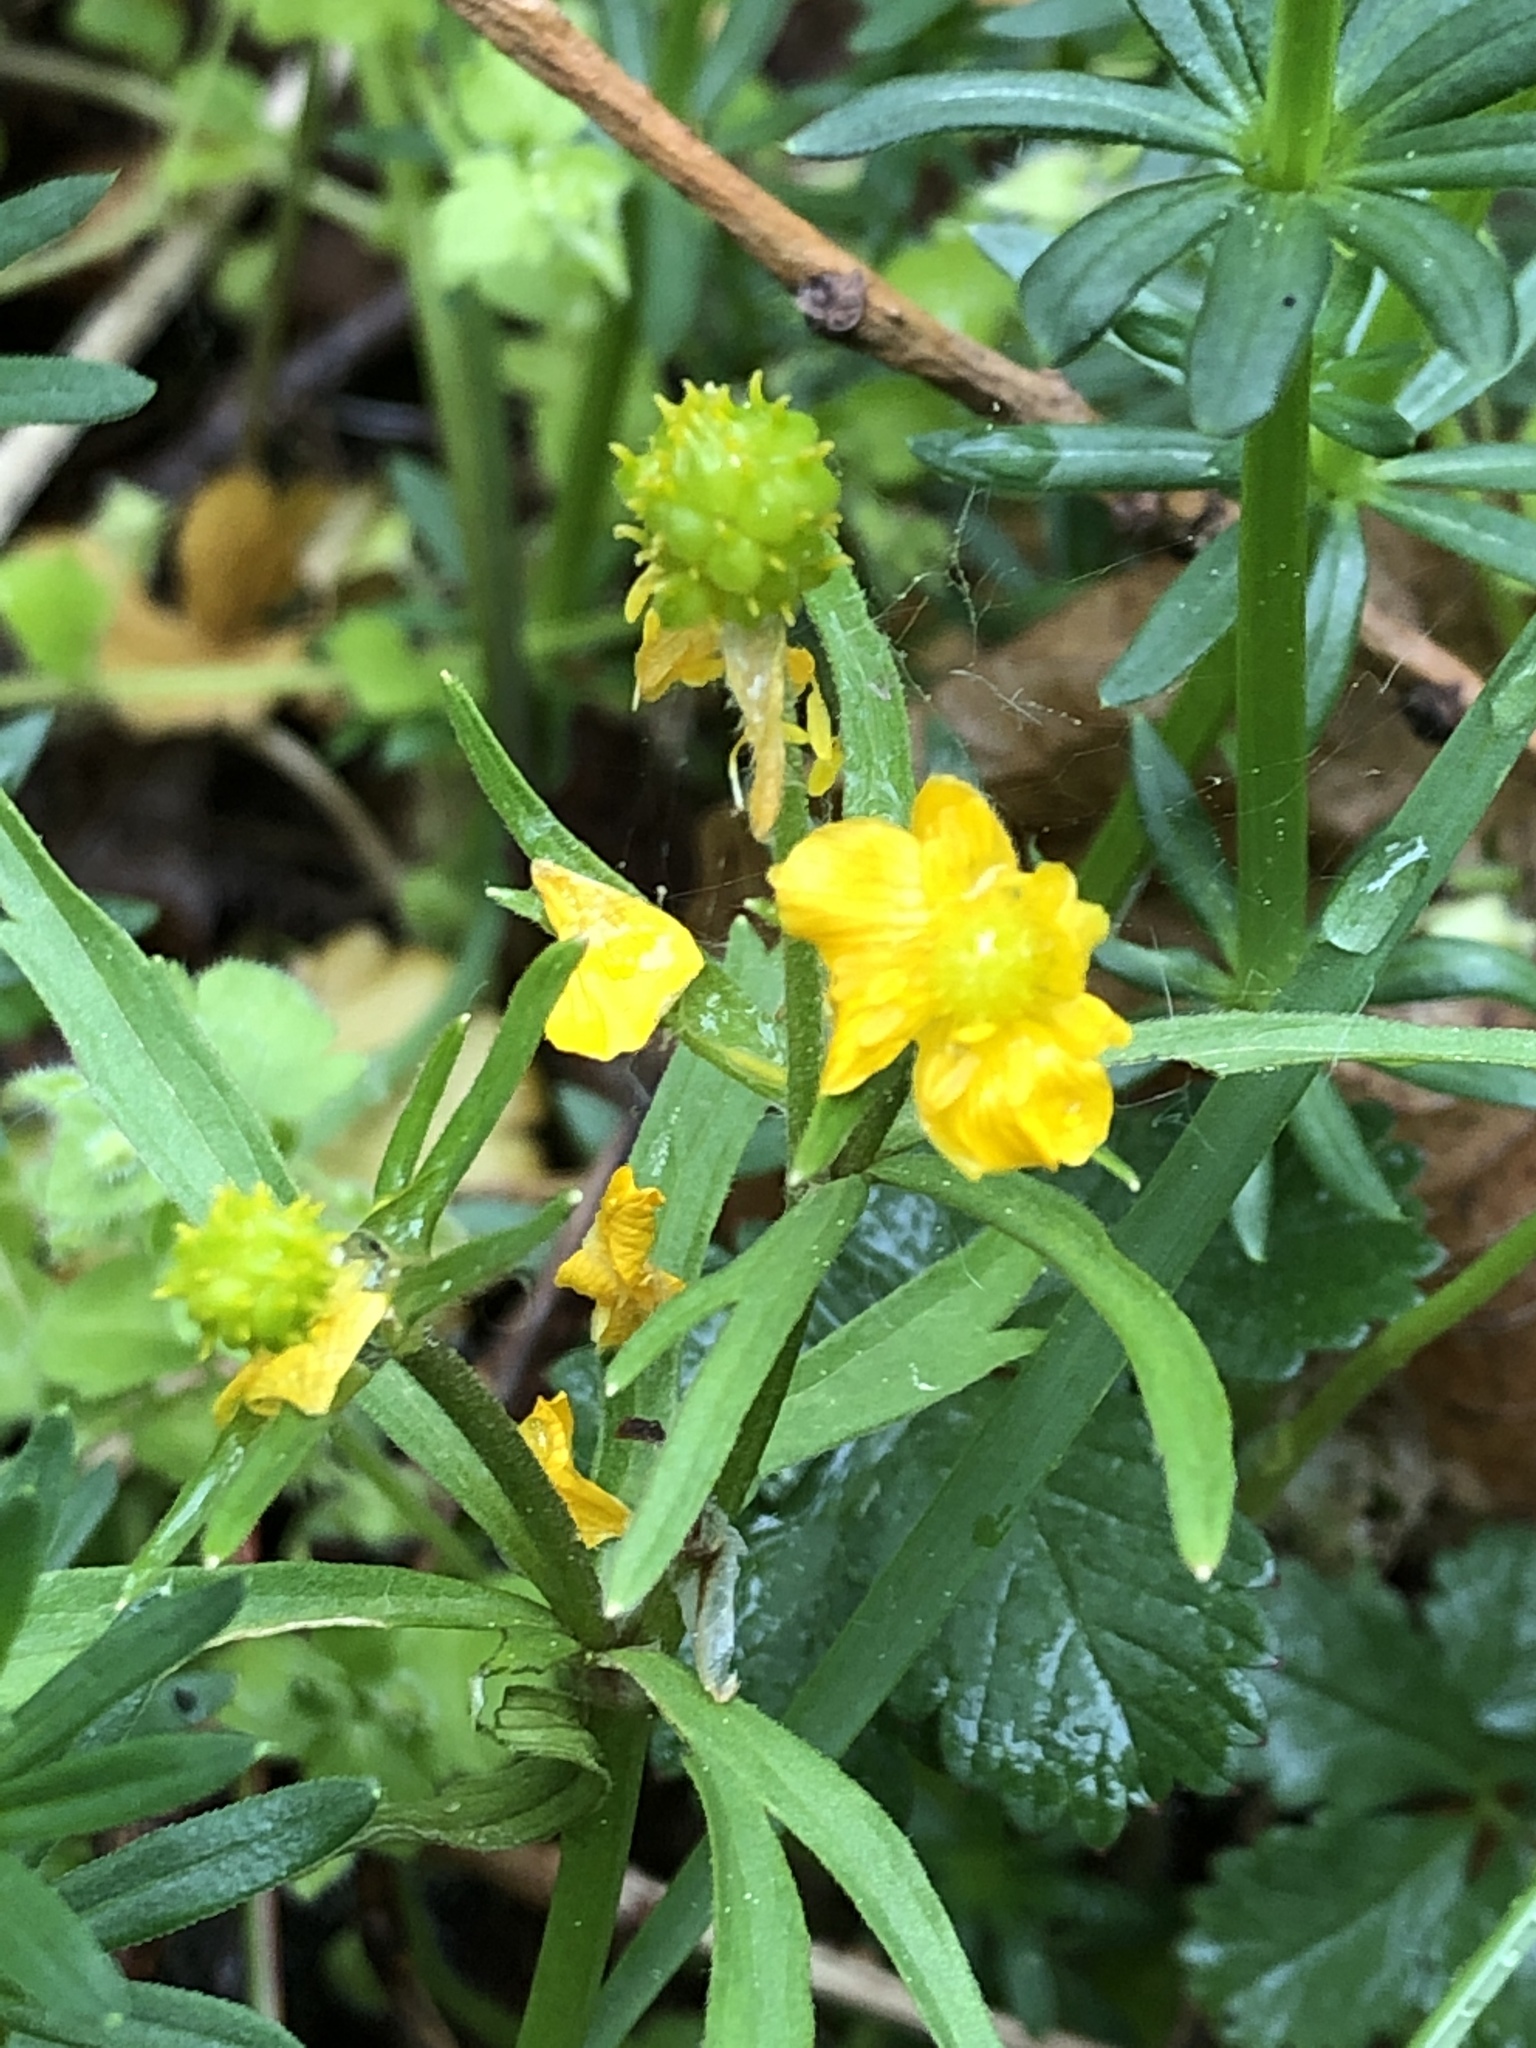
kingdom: Plantae
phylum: Tracheophyta
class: Magnoliopsida
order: Ranunculales
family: Ranunculaceae
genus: Ranunculus
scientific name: Ranunculus auricomus
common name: Goldilocks buttercup
